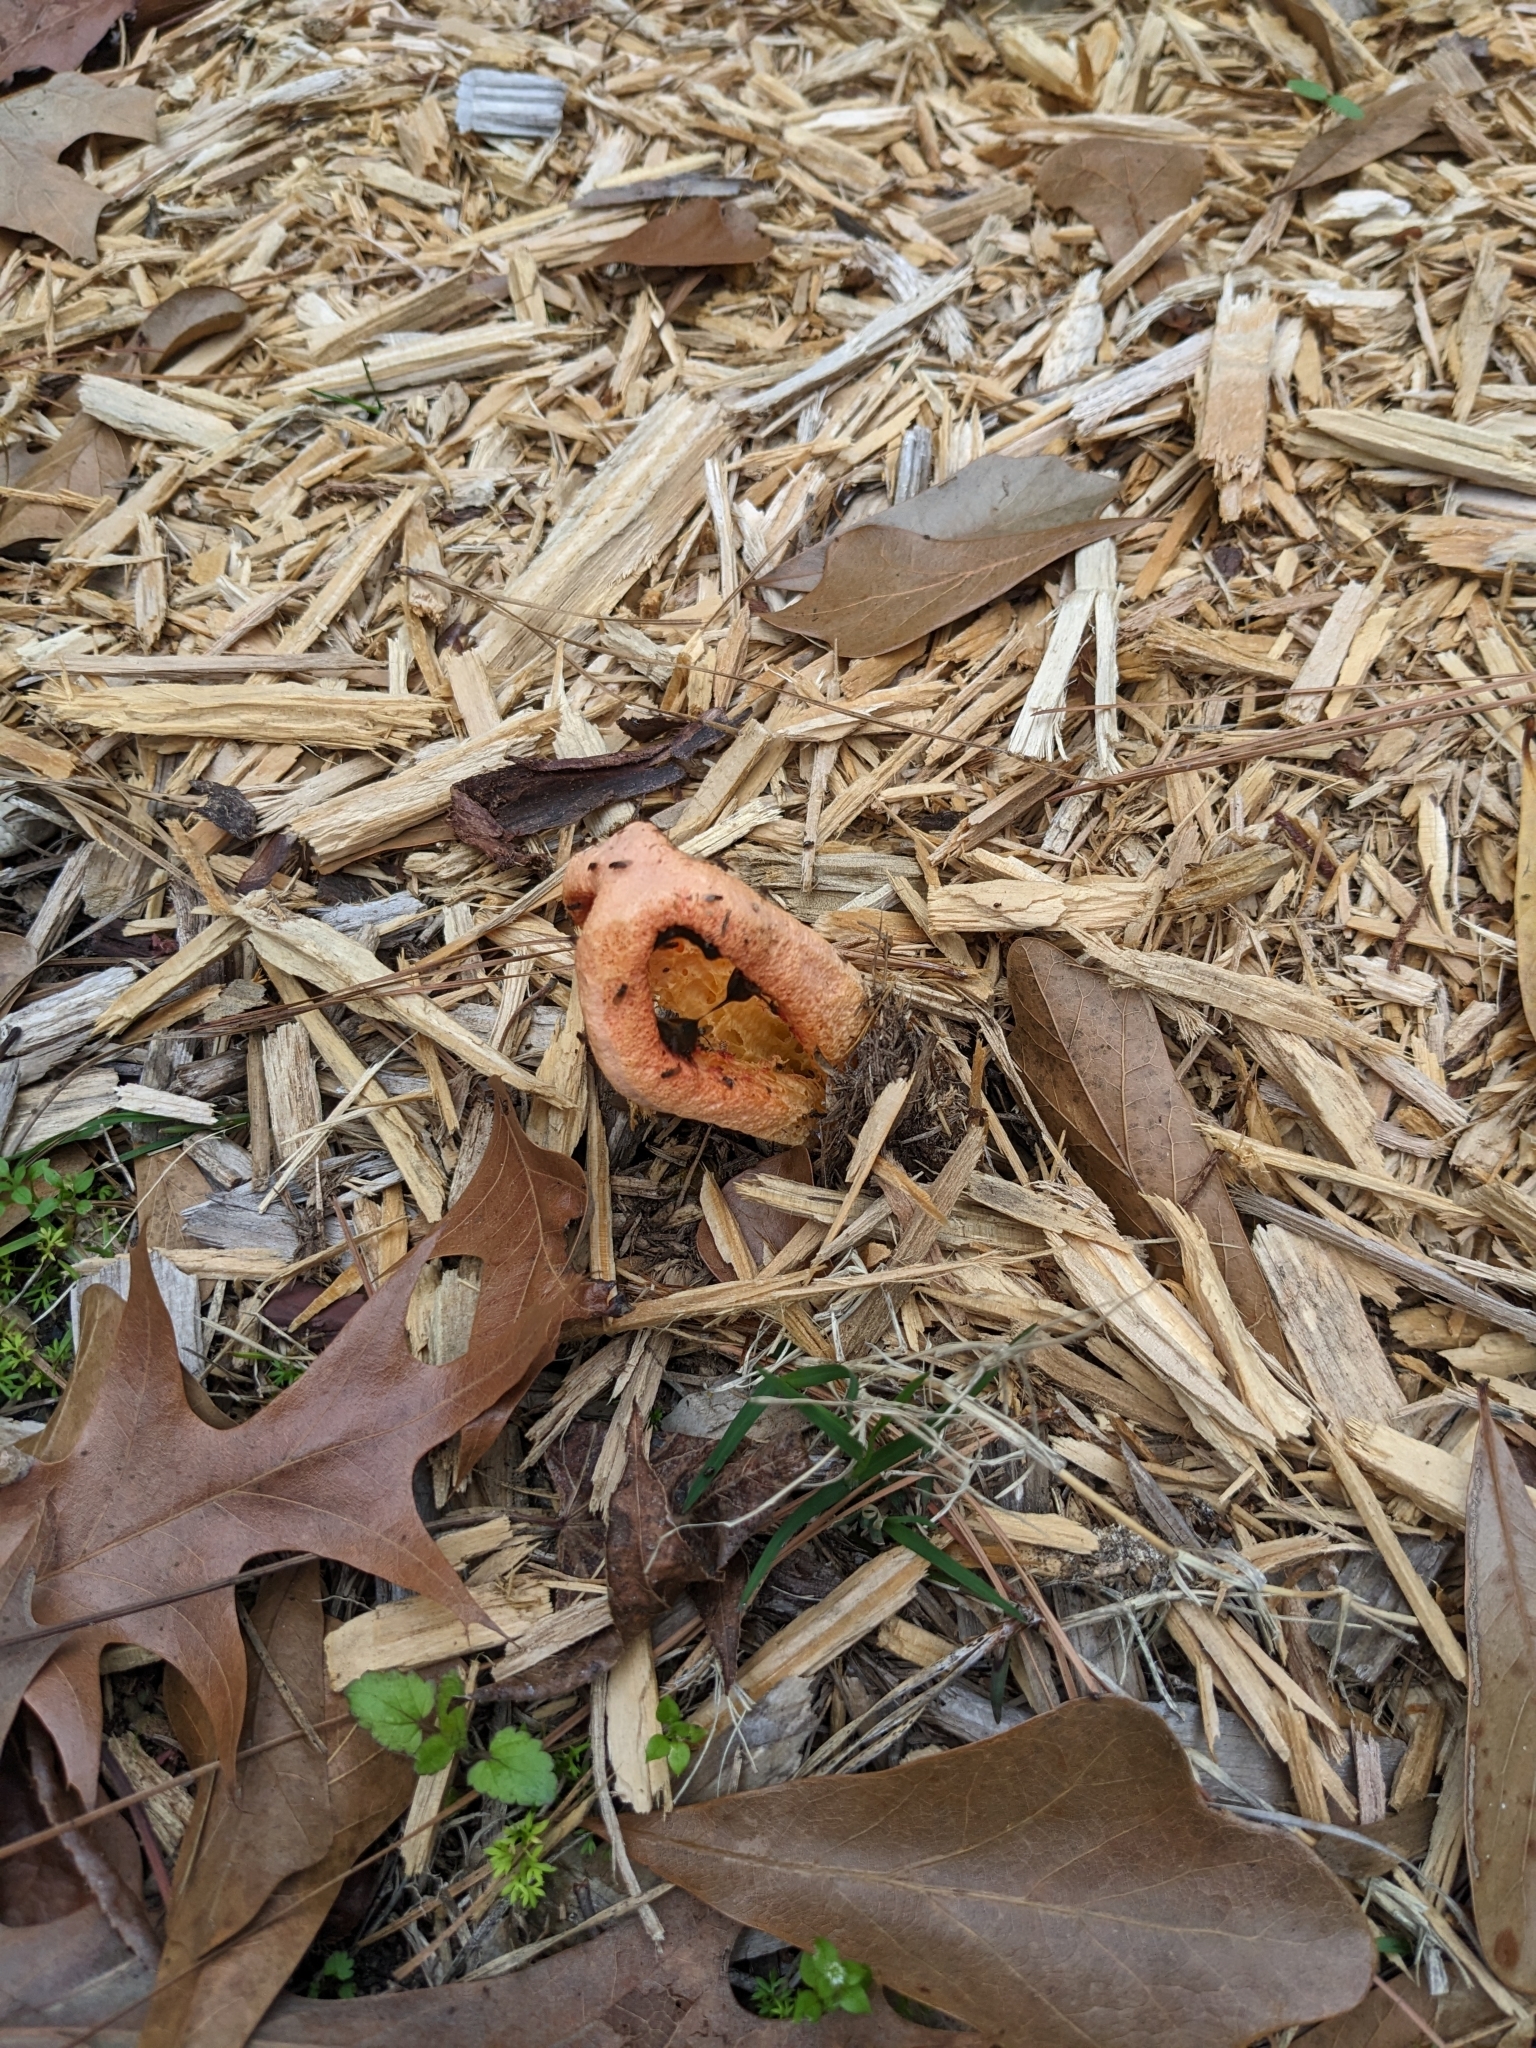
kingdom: Fungi
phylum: Basidiomycota
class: Agaricomycetes
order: Phallales
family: Phallaceae
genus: Clathrus
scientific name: Clathrus columnatus
